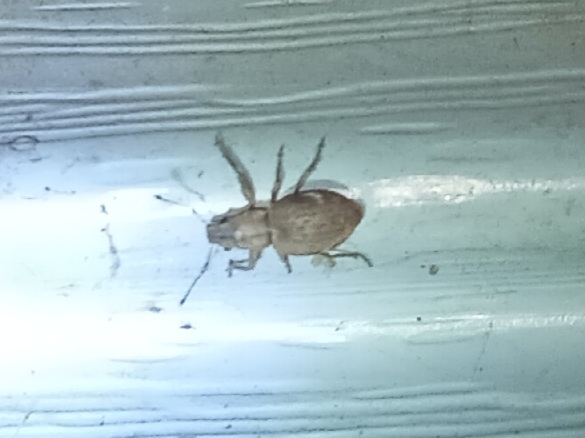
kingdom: Animalia
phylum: Arthropoda
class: Insecta
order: Coleoptera
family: Curculionidae
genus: Naupactus
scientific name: Naupactus cervinus
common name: Fuller rose beetle
